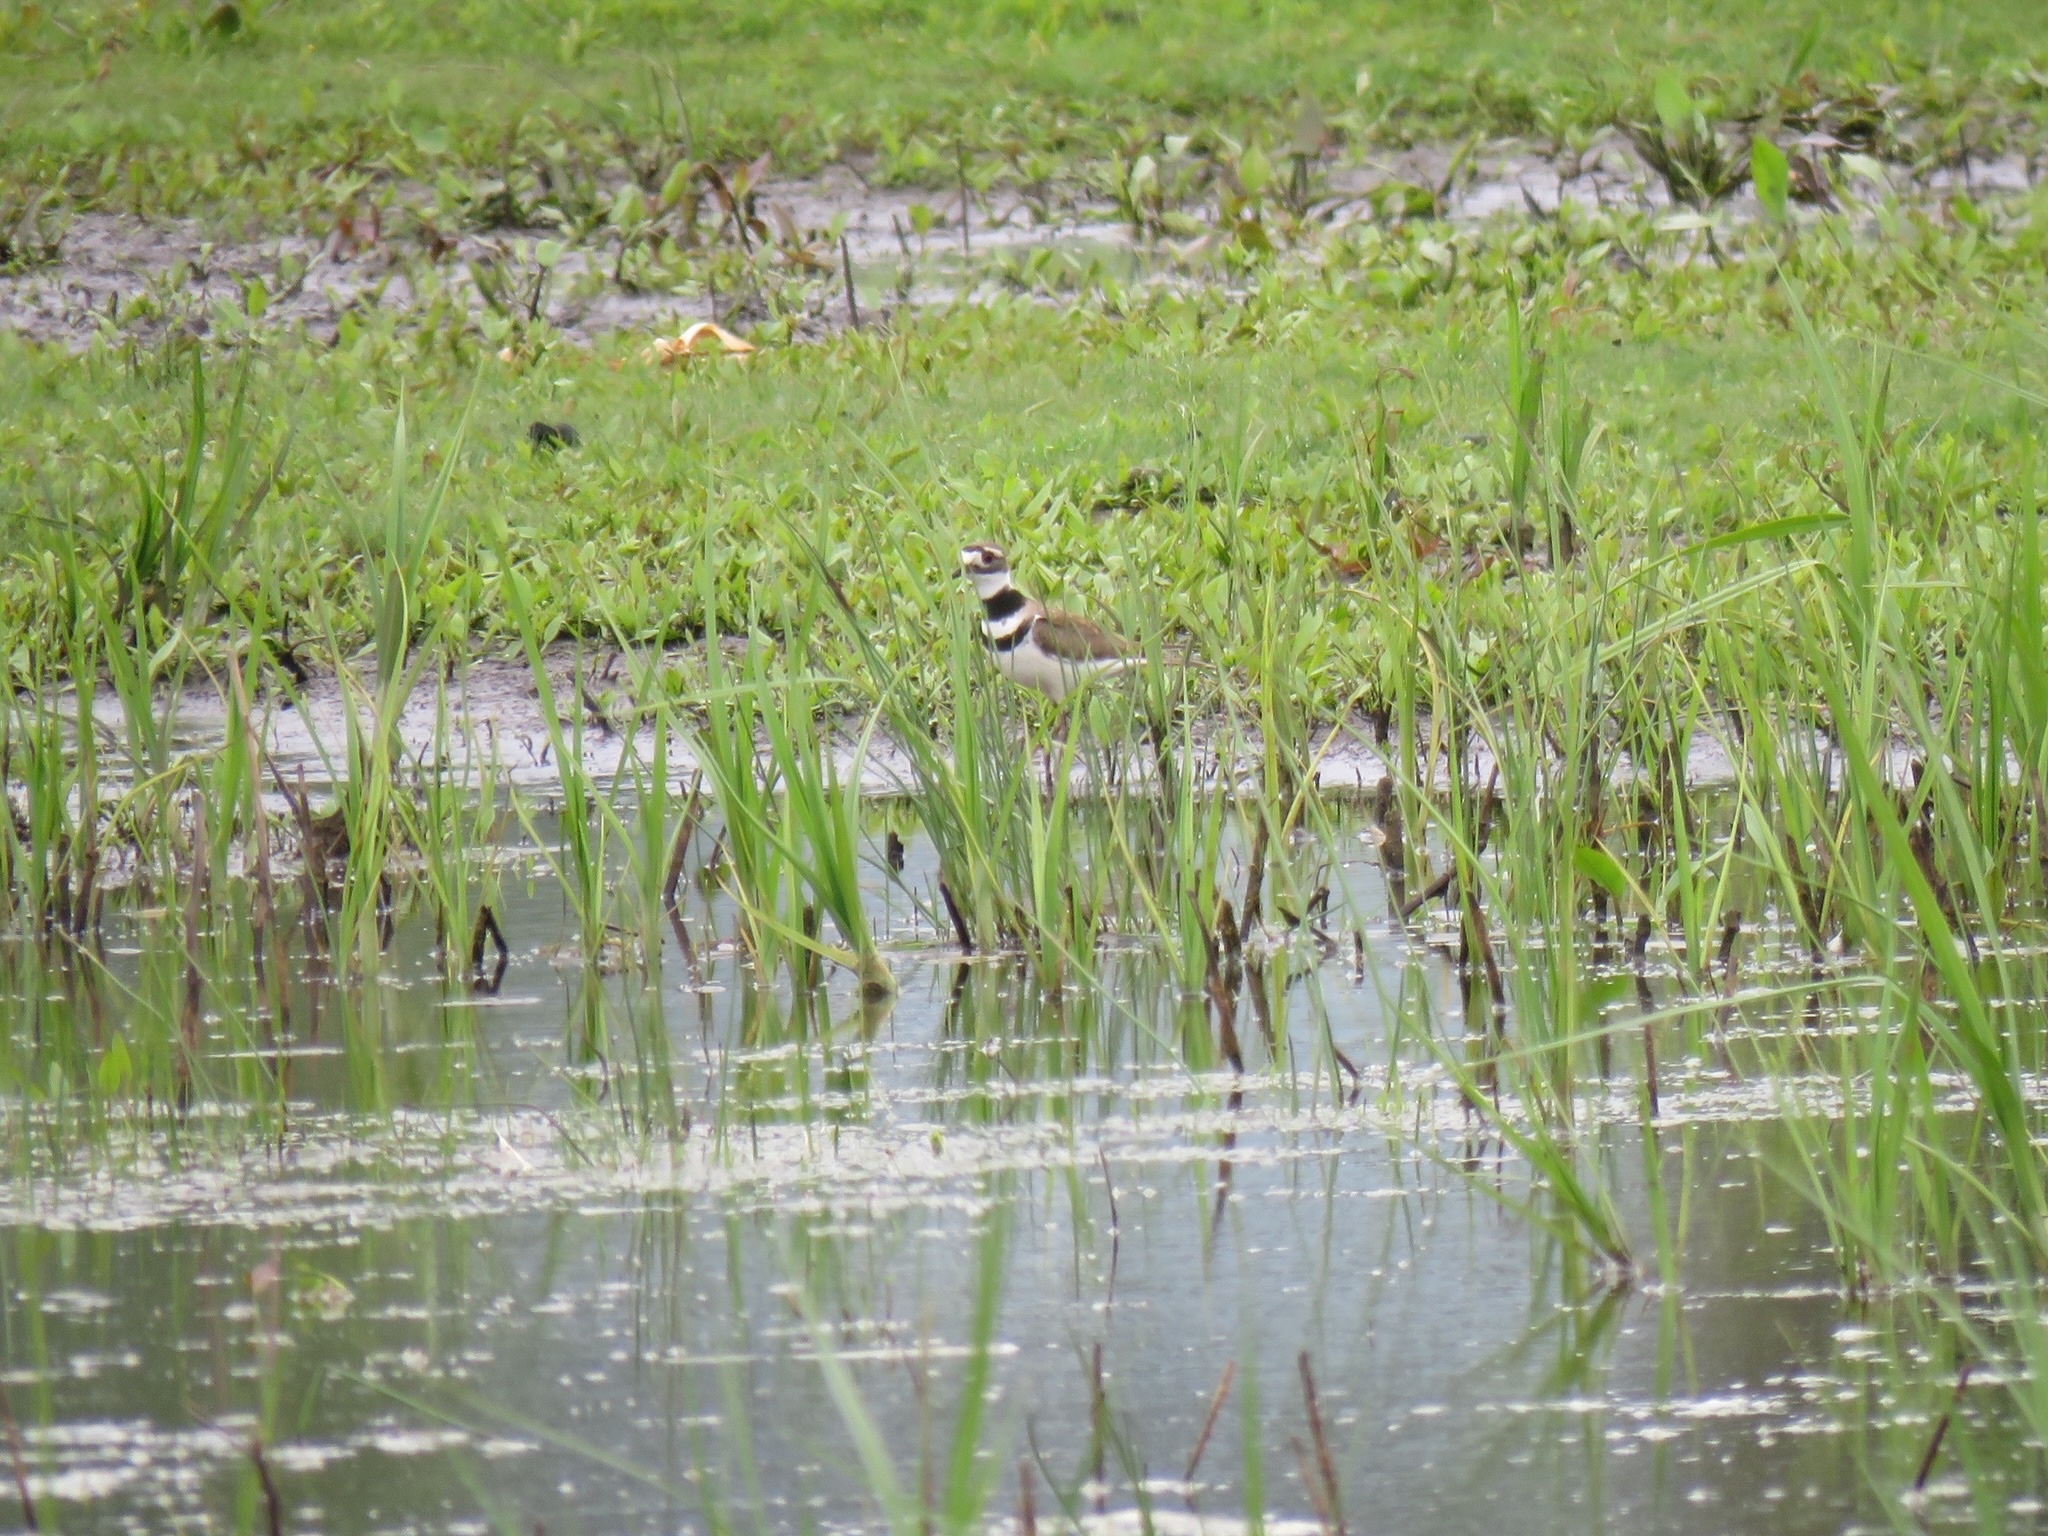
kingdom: Animalia
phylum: Chordata
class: Aves
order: Charadriiformes
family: Charadriidae
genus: Charadrius
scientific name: Charadrius vociferus
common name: Killdeer
